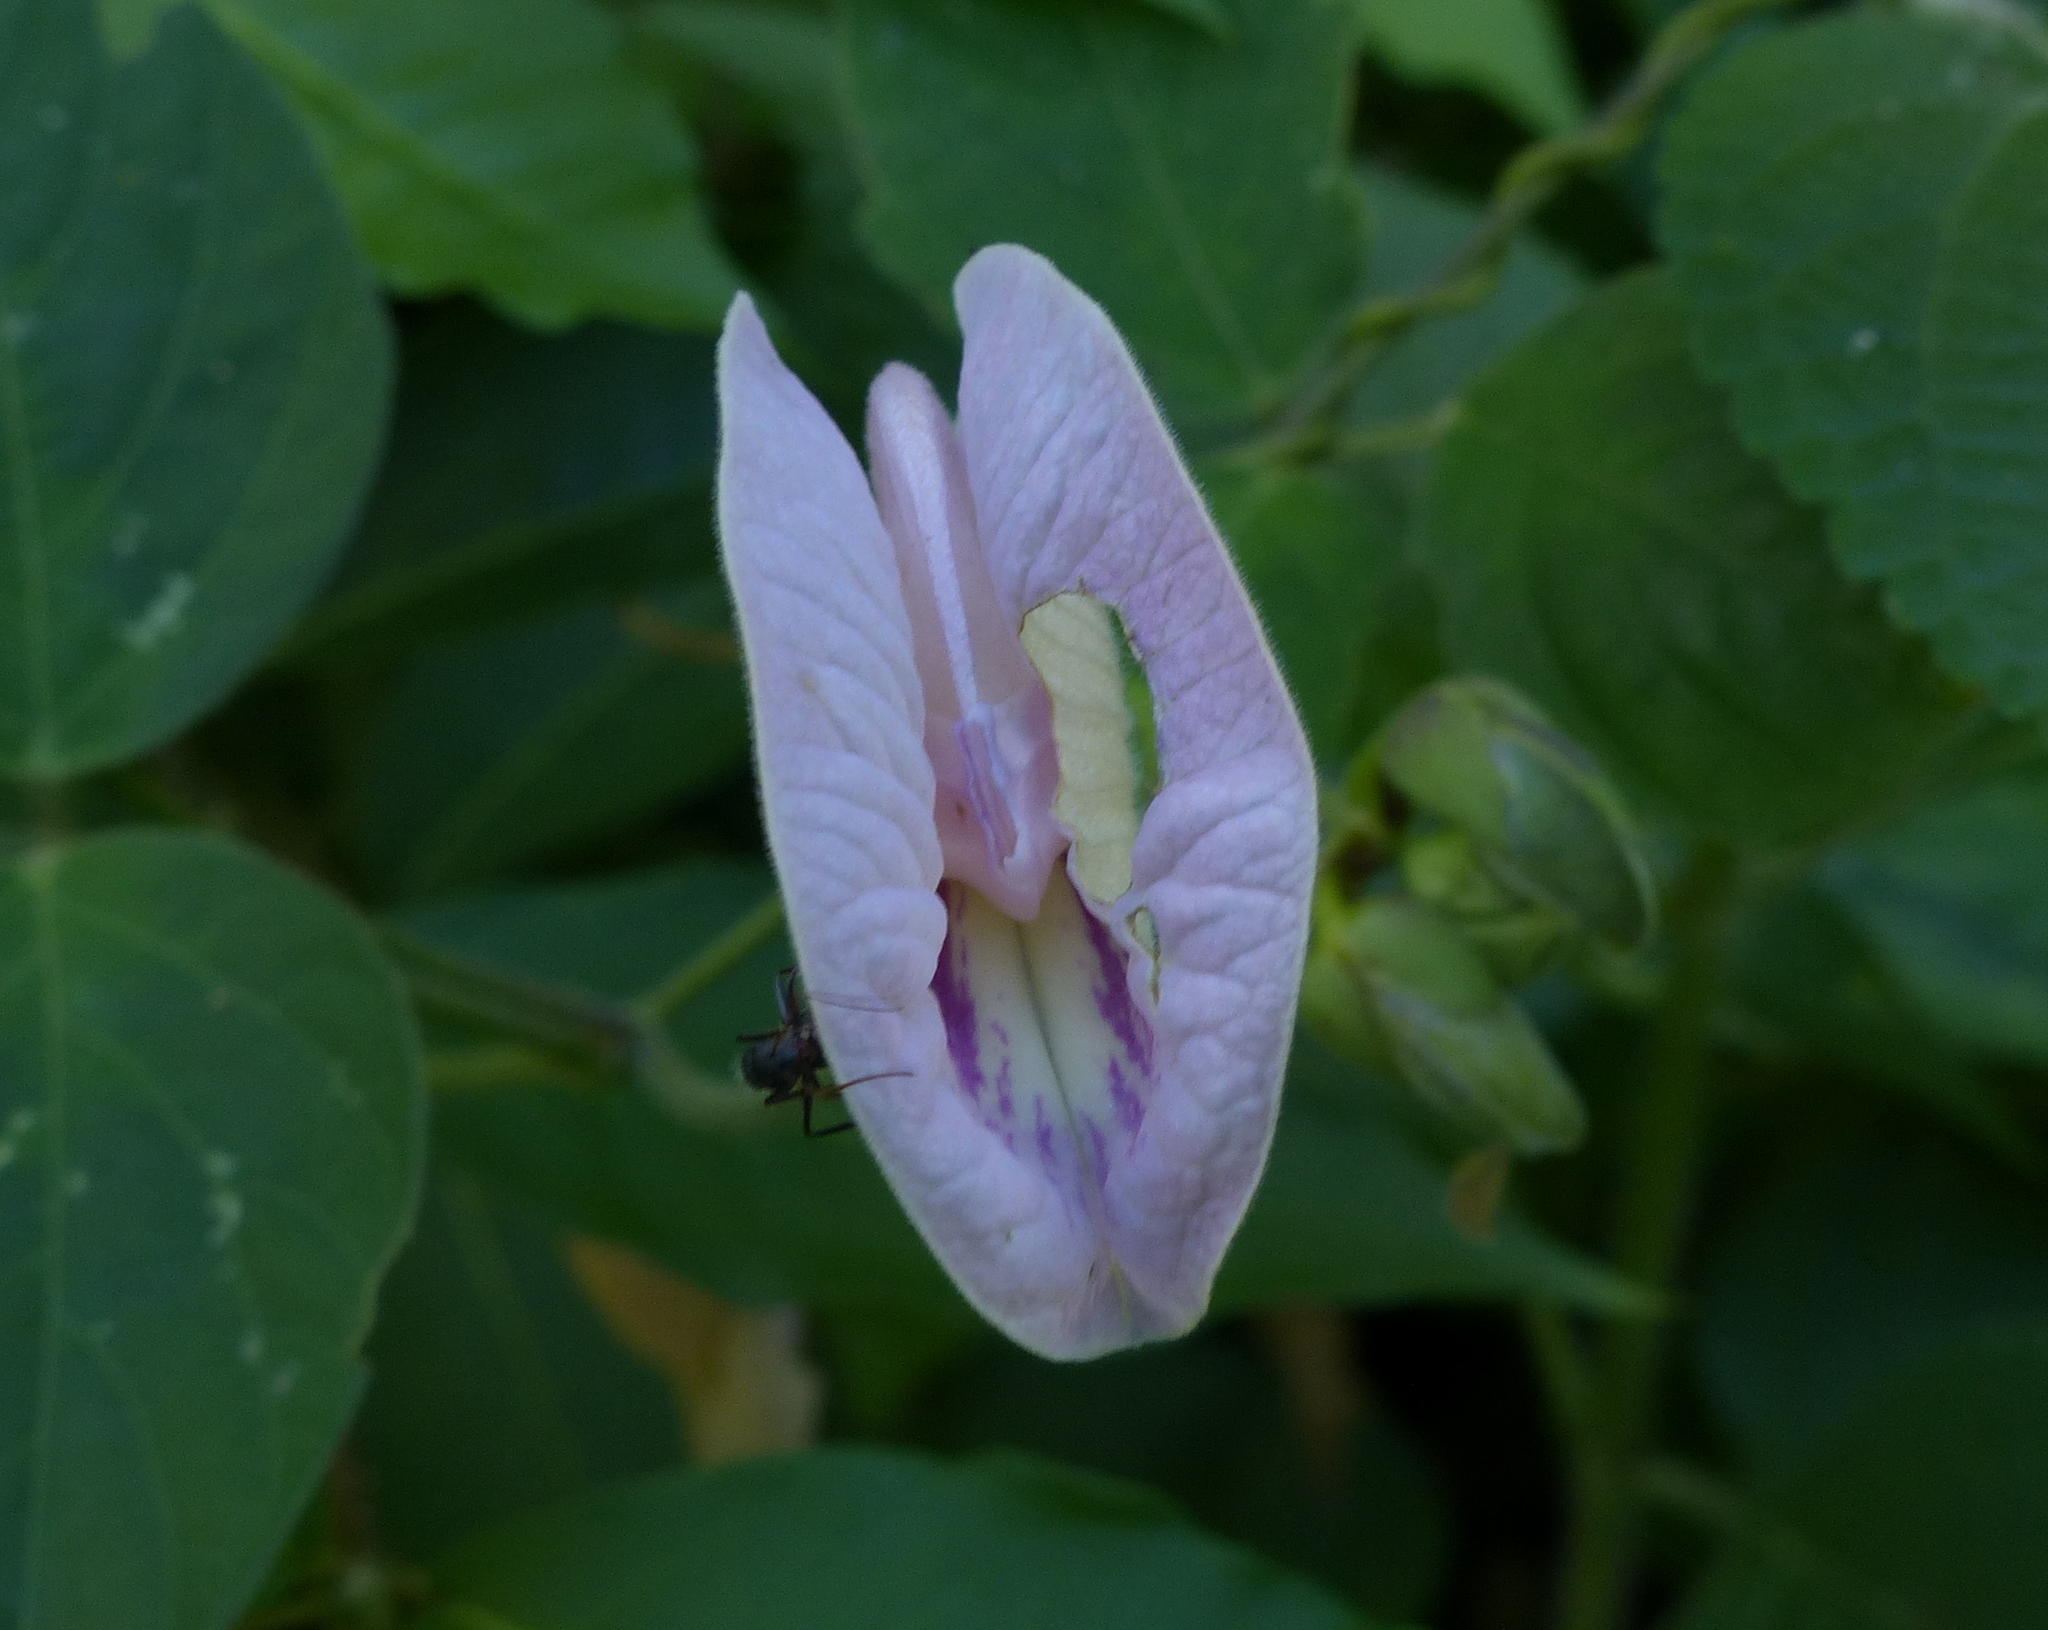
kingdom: Plantae
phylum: Tracheophyta
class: Magnoliopsida
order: Fabales
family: Fabaceae
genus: Centrosema
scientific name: Centrosema pubescens
